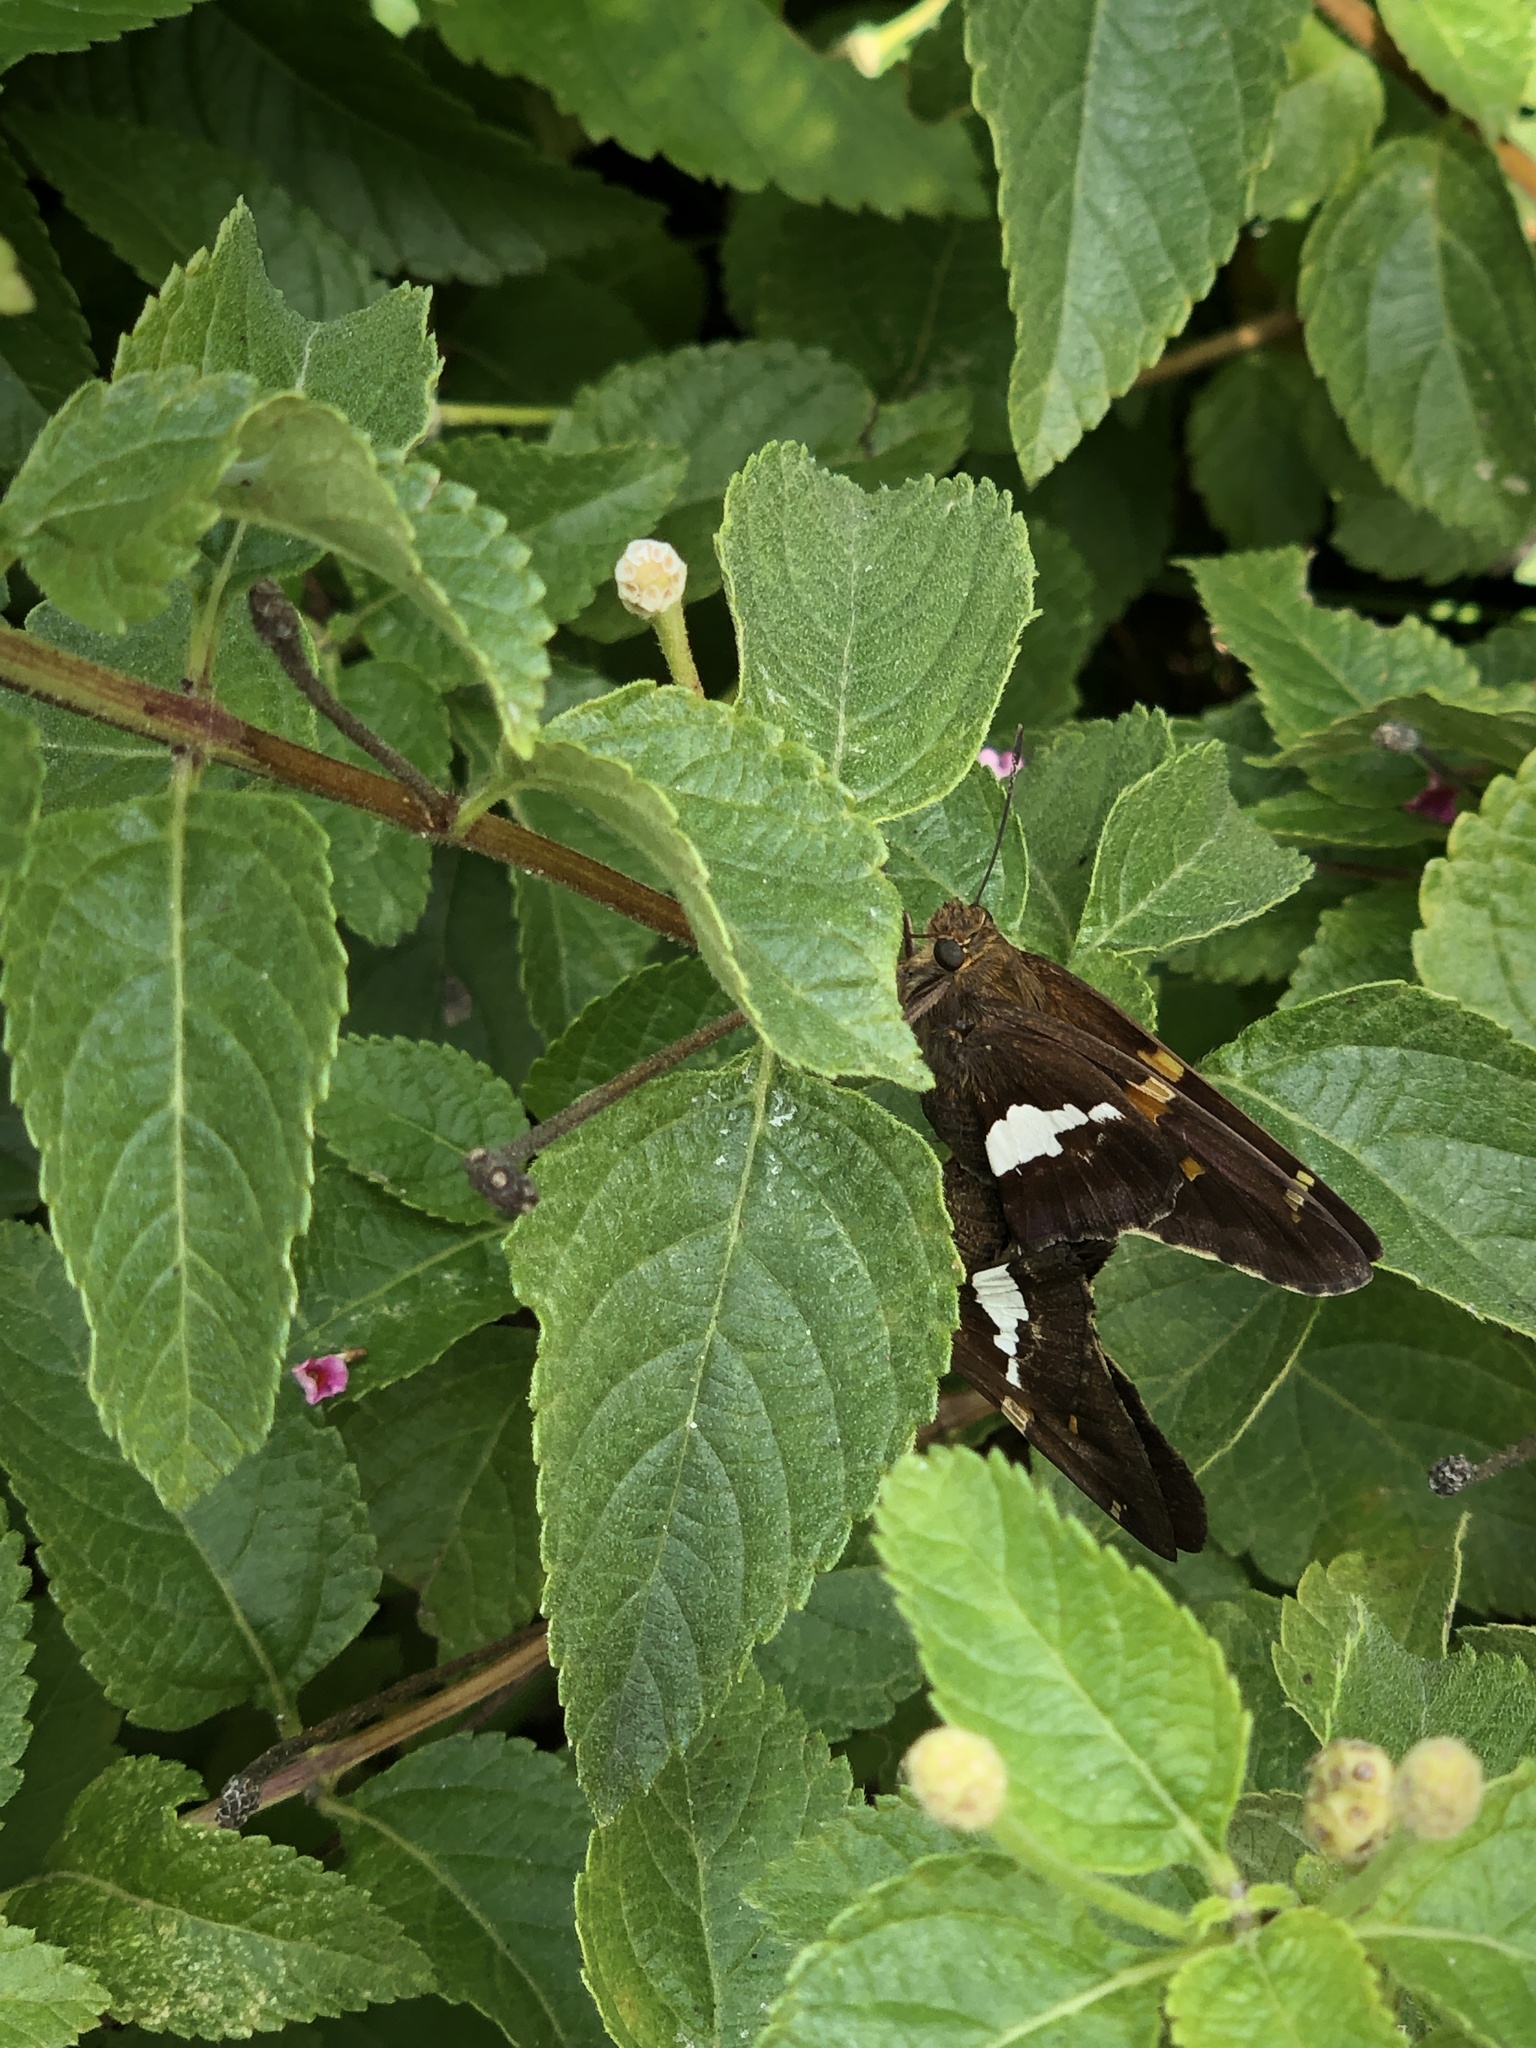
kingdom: Animalia
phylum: Arthropoda
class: Insecta
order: Lepidoptera
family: Hesperiidae
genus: Epargyreus
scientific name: Epargyreus clarus
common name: Silver-spotted skipper
